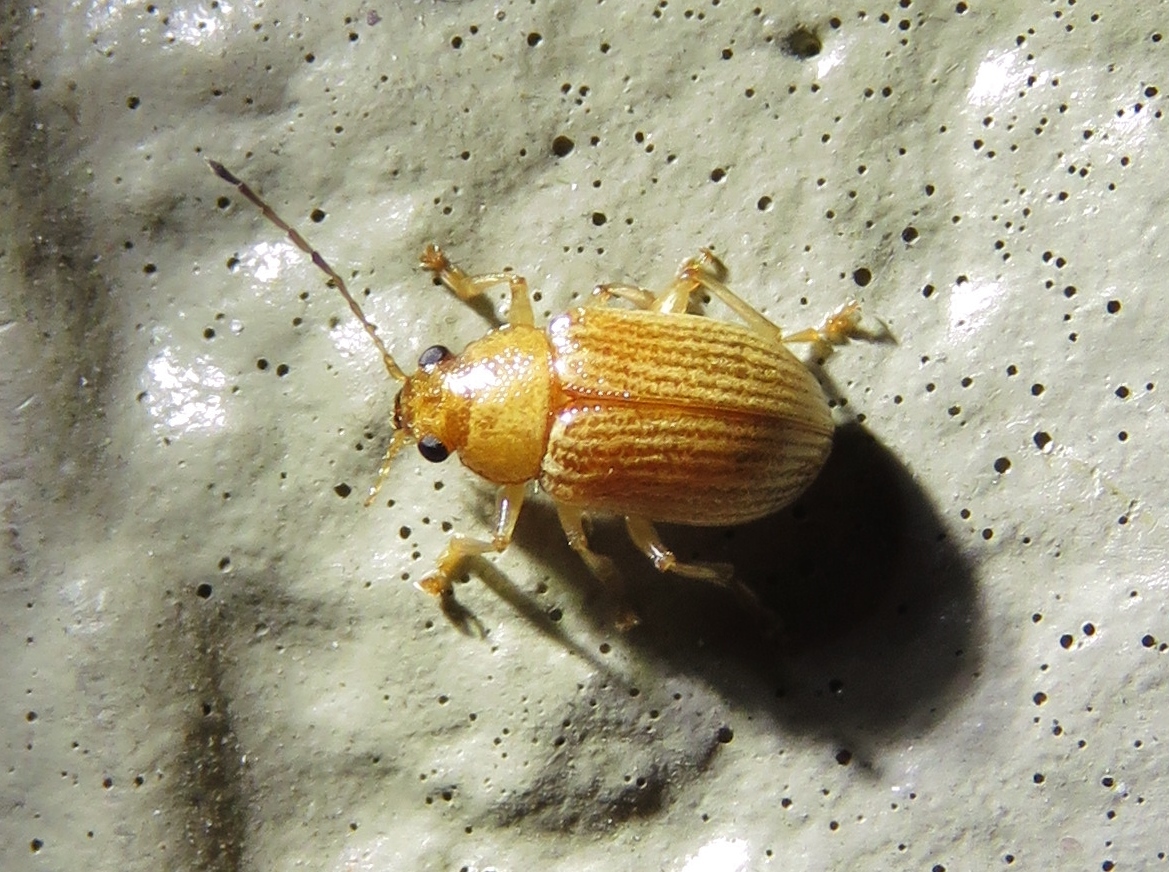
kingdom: Animalia
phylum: Arthropoda
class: Insecta
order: Coleoptera
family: Chrysomelidae
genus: Colaspis
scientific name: Colaspis brunnea
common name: Grape colaspis
